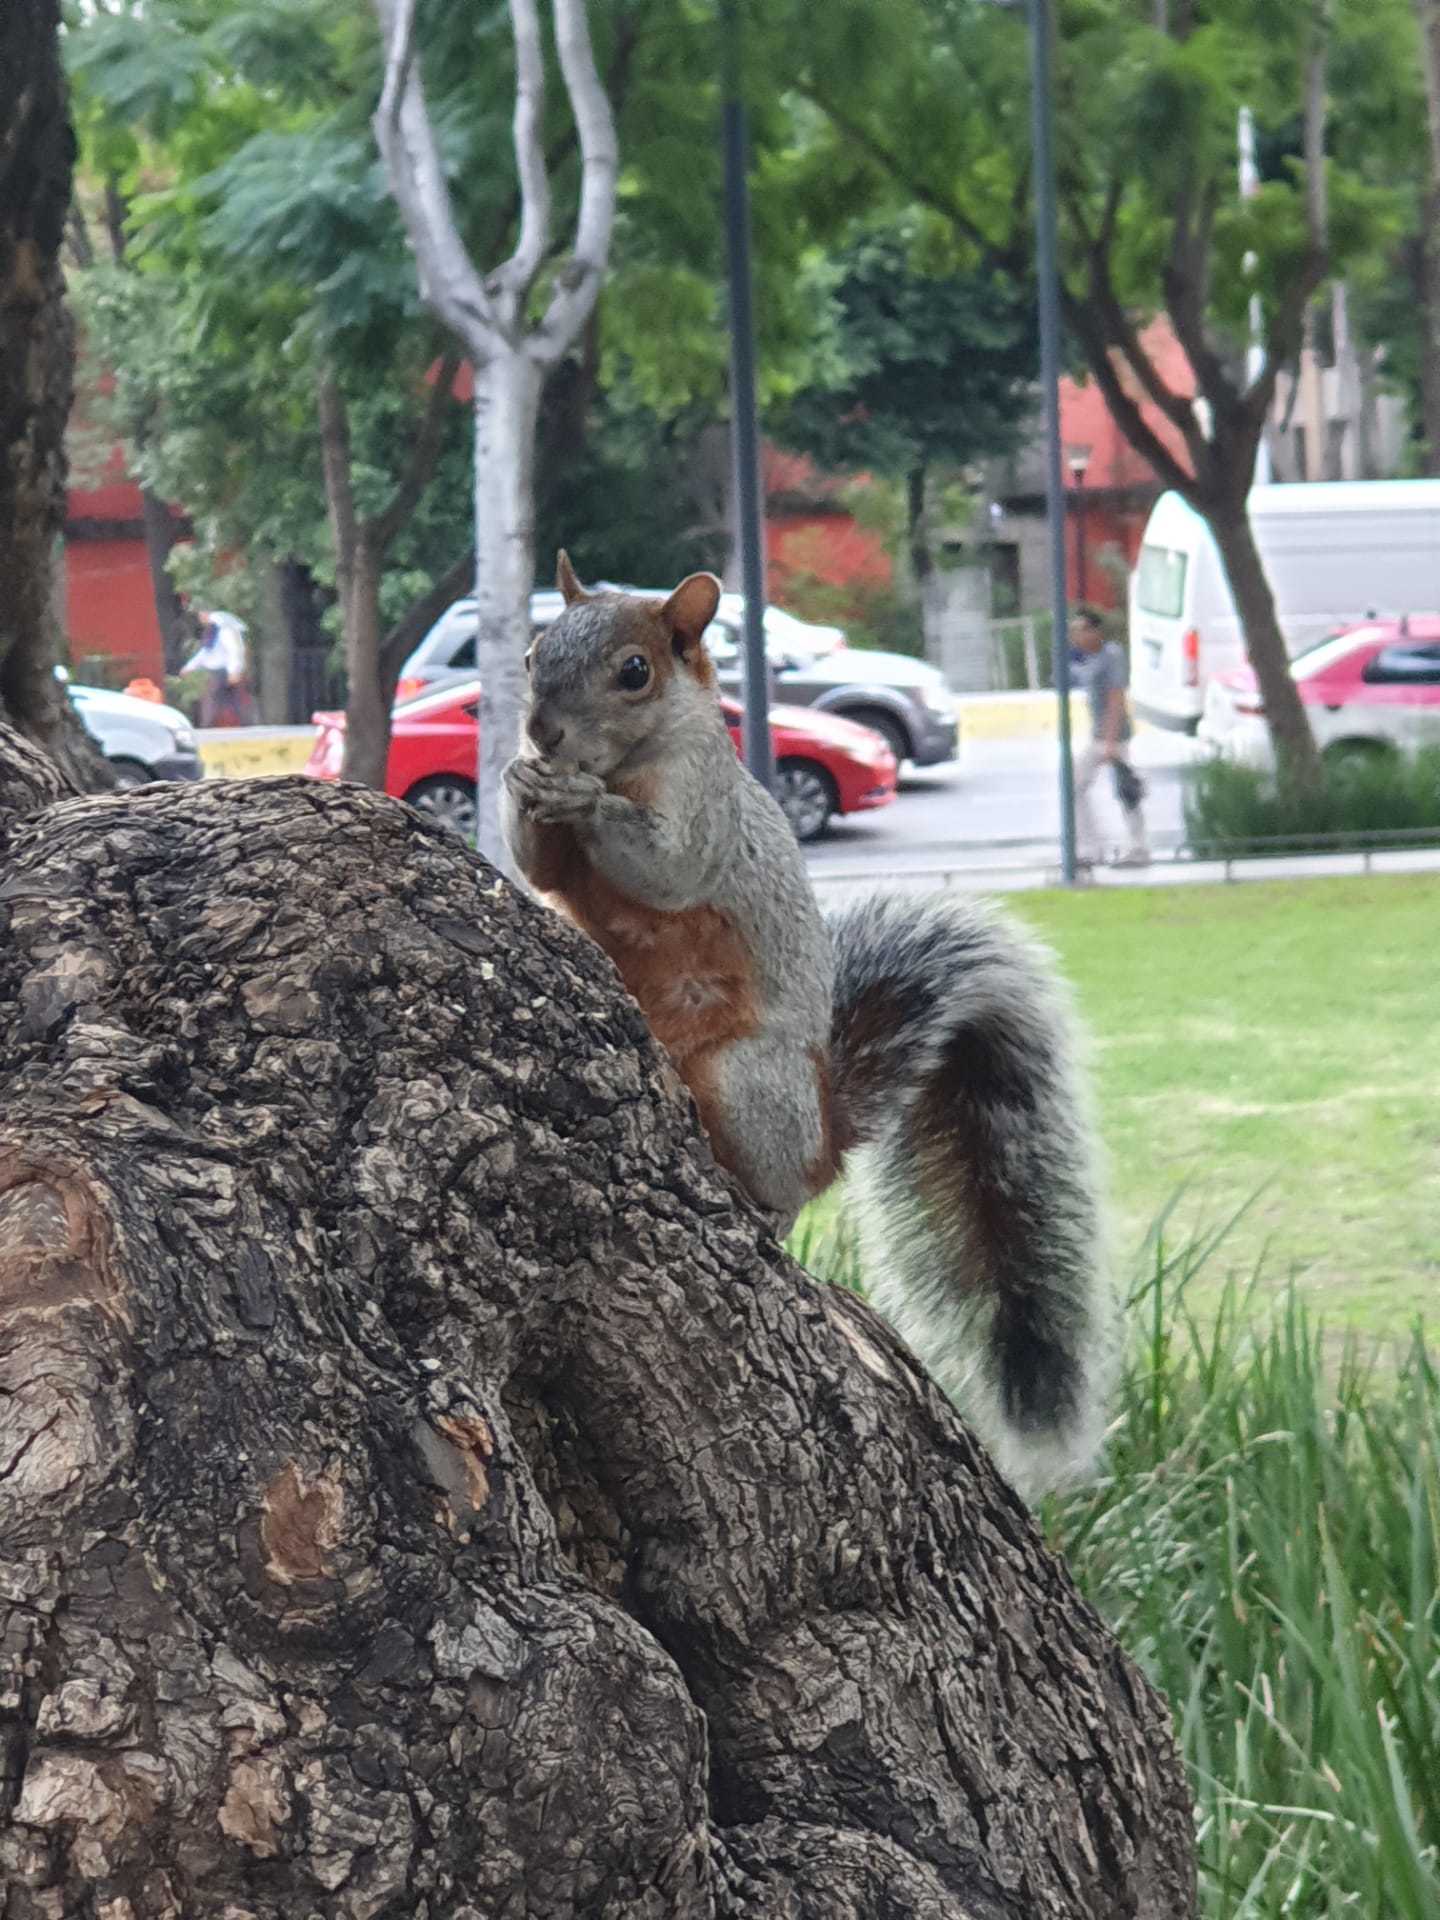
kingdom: Animalia
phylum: Chordata
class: Mammalia
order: Rodentia
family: Sciuridae
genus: Sciurus
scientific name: Sciurus aureogaster
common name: Red-bellied squirrel
